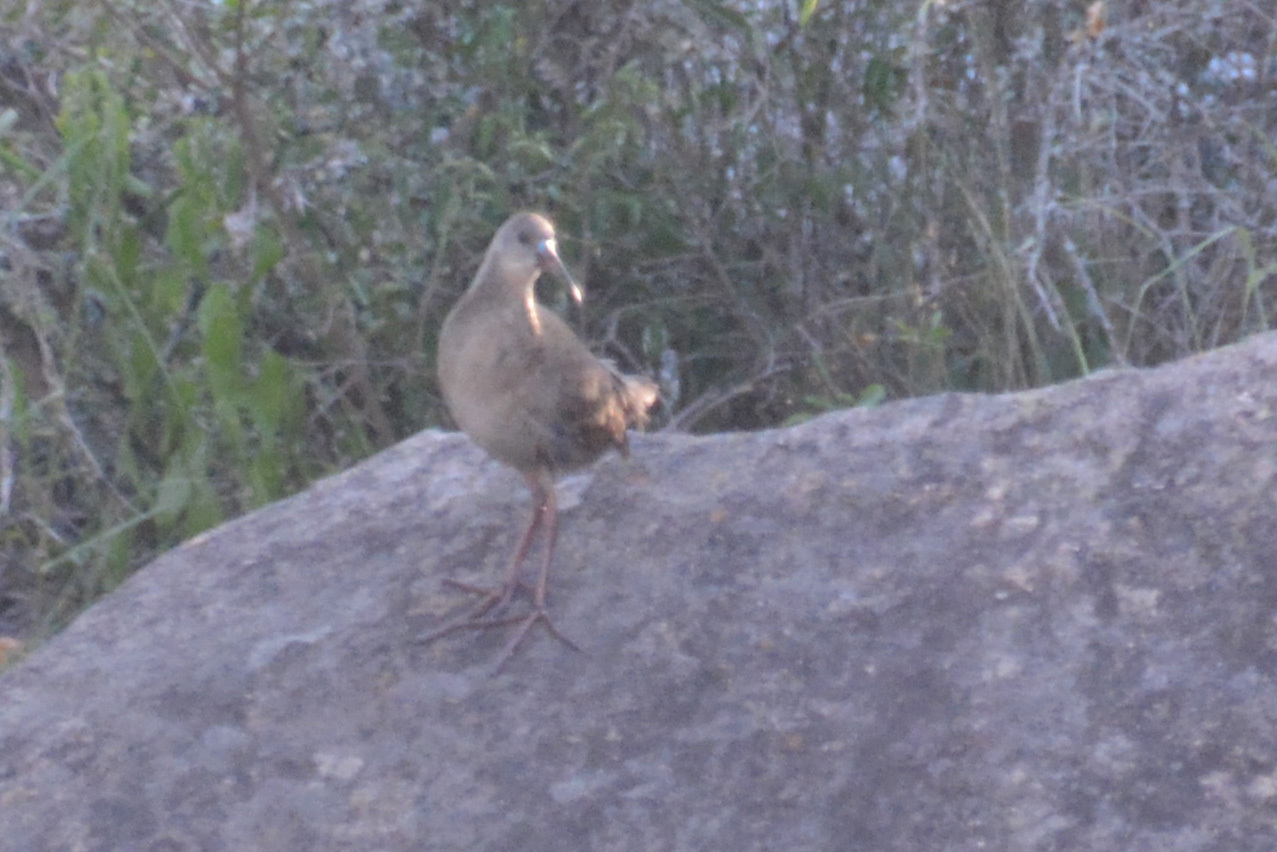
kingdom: Animalia
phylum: Chordata
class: Aves
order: Gruiformes
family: Rallidae
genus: Pardirallus
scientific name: Pardirallus sanguinolentus
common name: Plumbeous rail
